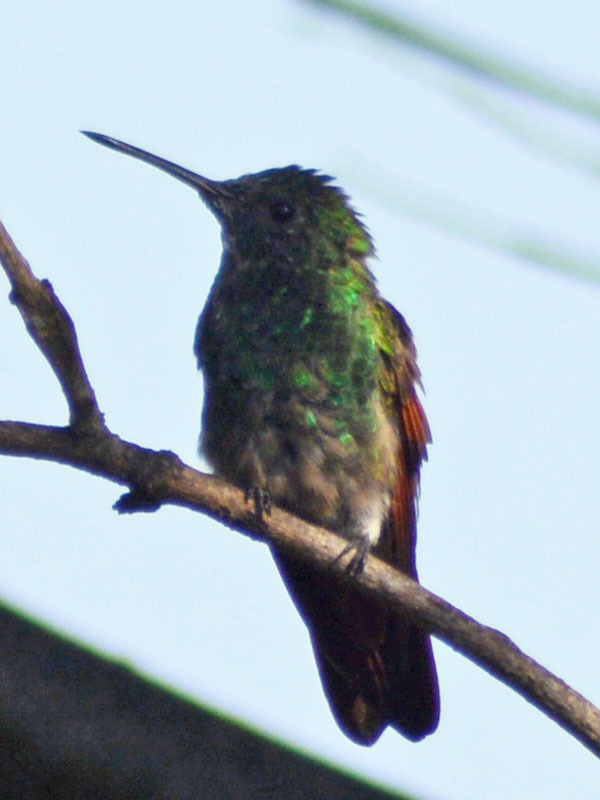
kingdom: Animalia
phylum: Chordata
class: Aves
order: Apodiformes
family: Trochilidae
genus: Saucerottia
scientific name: Saucerottia beryllina
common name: Berylline hummingbird
